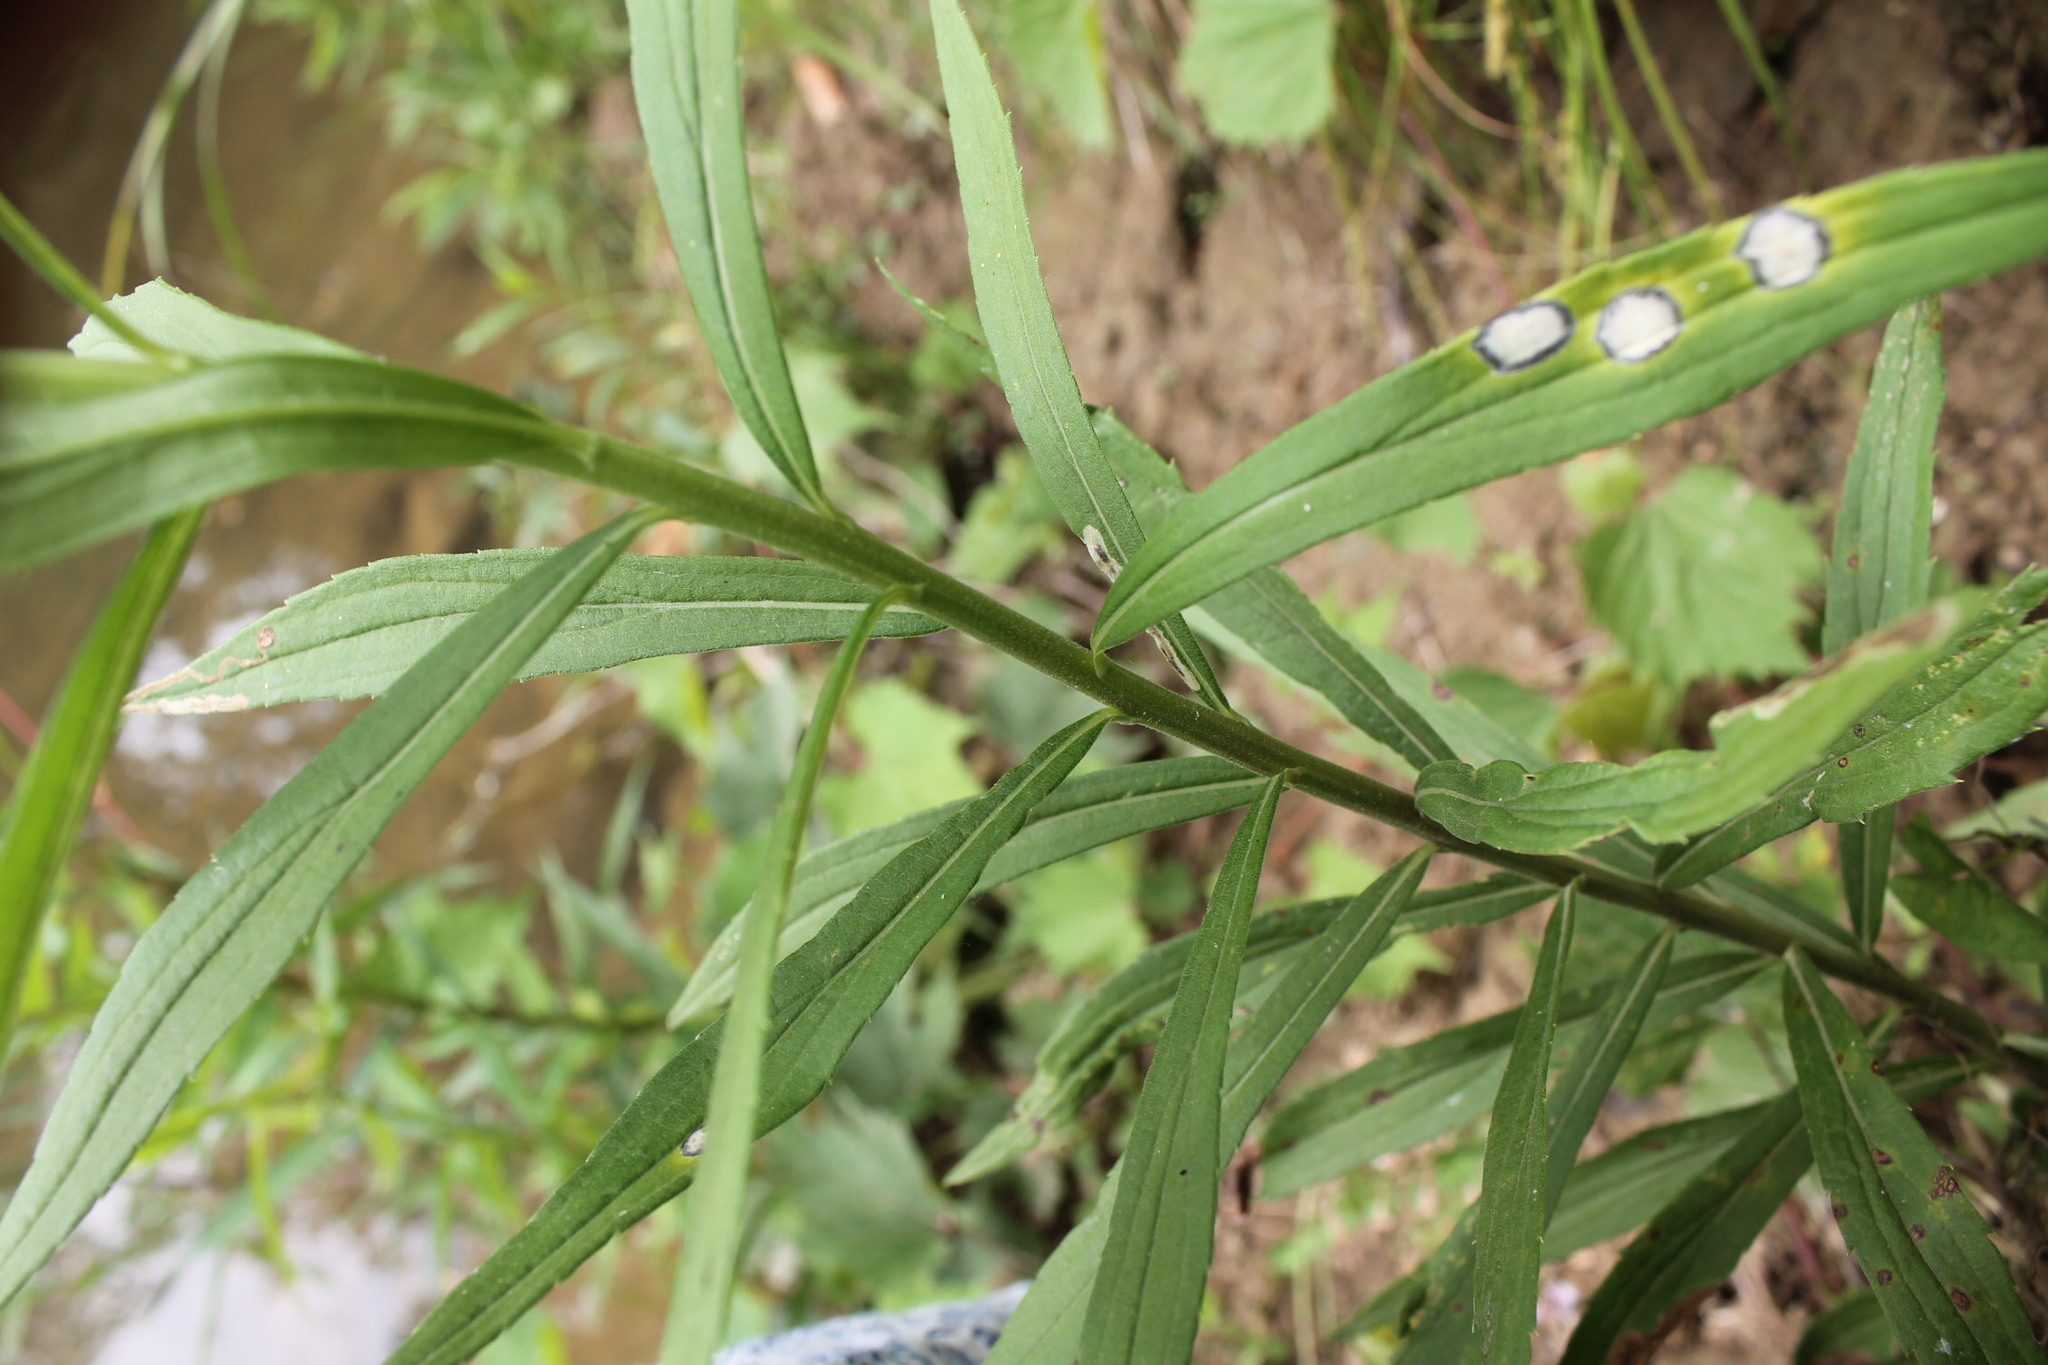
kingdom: Animalia
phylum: Arthropoda
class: Insecta
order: Diptera
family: Cecidomyiidae
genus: Asteromyia
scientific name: Asteromyia carbonifera
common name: Carbonifera goldenrod gall midge
